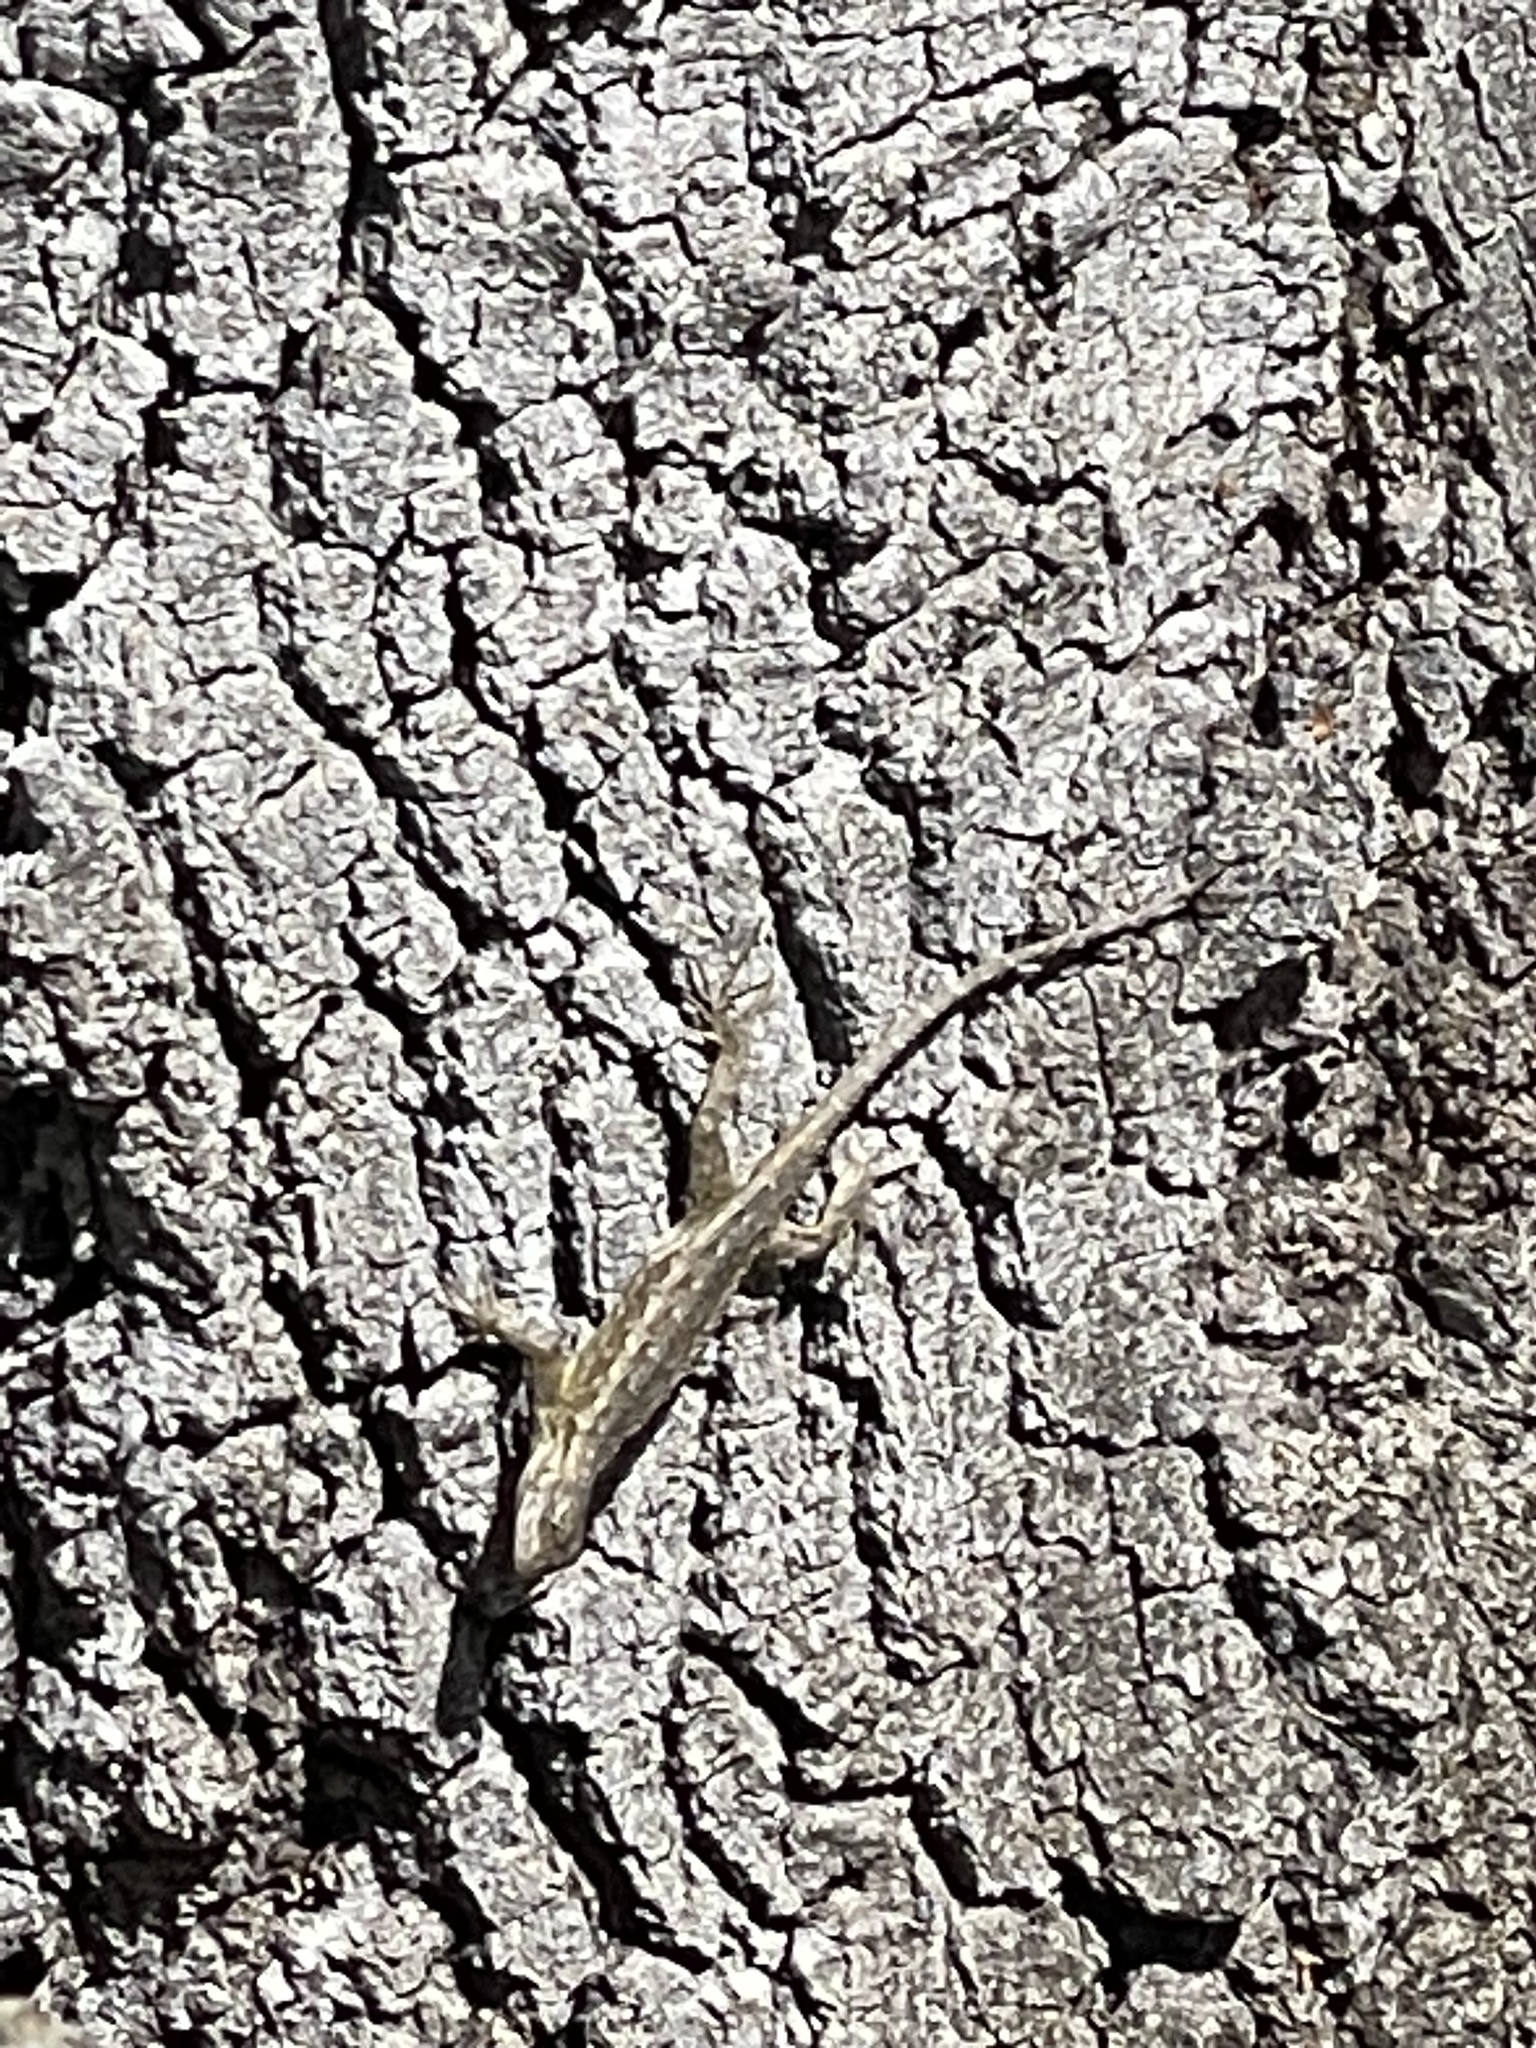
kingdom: Animalia
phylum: Chordata
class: Squamata
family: Phrynosomatidae
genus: Sceloporus
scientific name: Sceloporus occidentalis
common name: Western fence lizard
